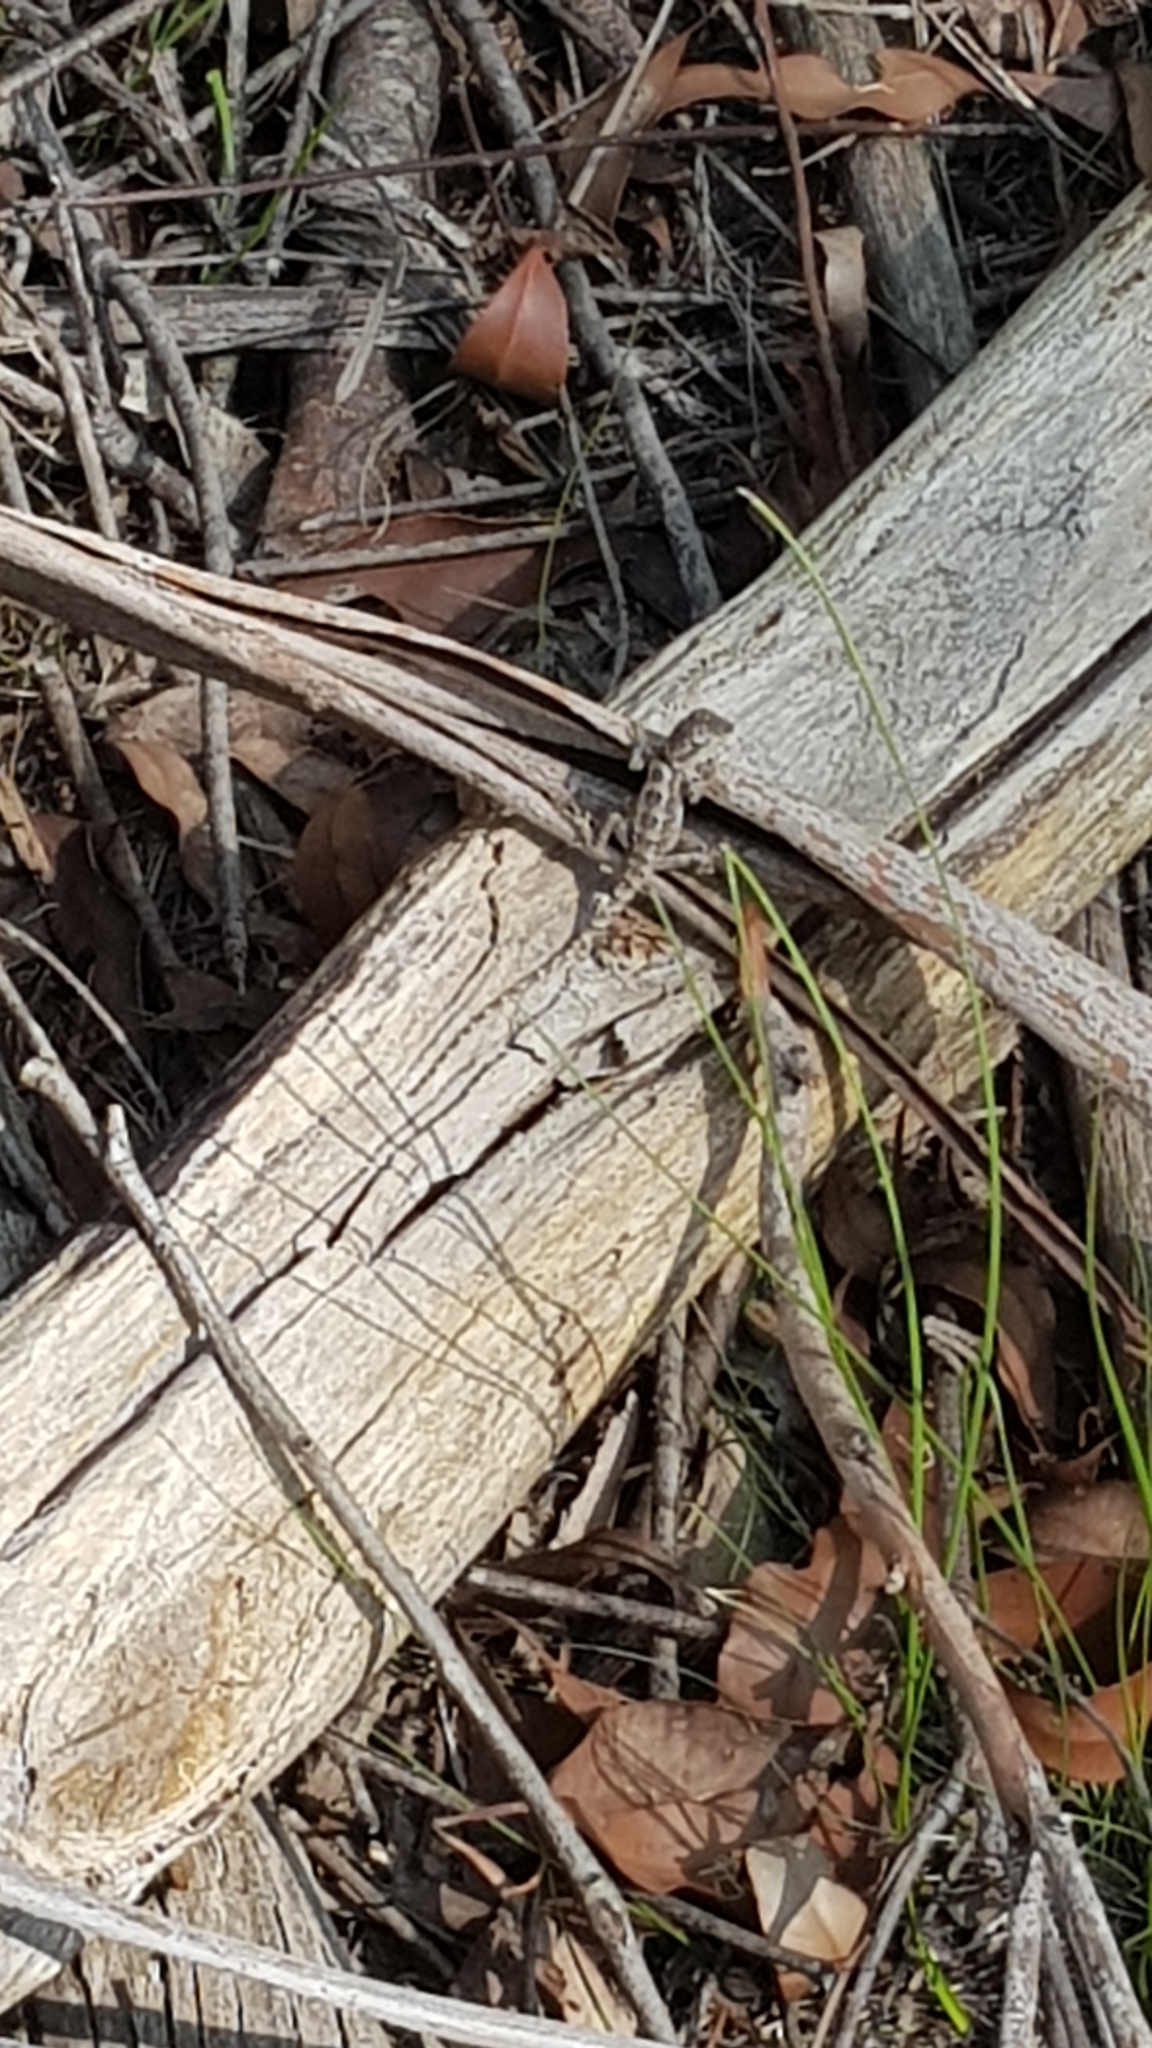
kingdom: Animalia
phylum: Chordata
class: Squamata
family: Agamidae
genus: Amphibolurus
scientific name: Amphibolurus muricatus
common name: Jacky lizard
